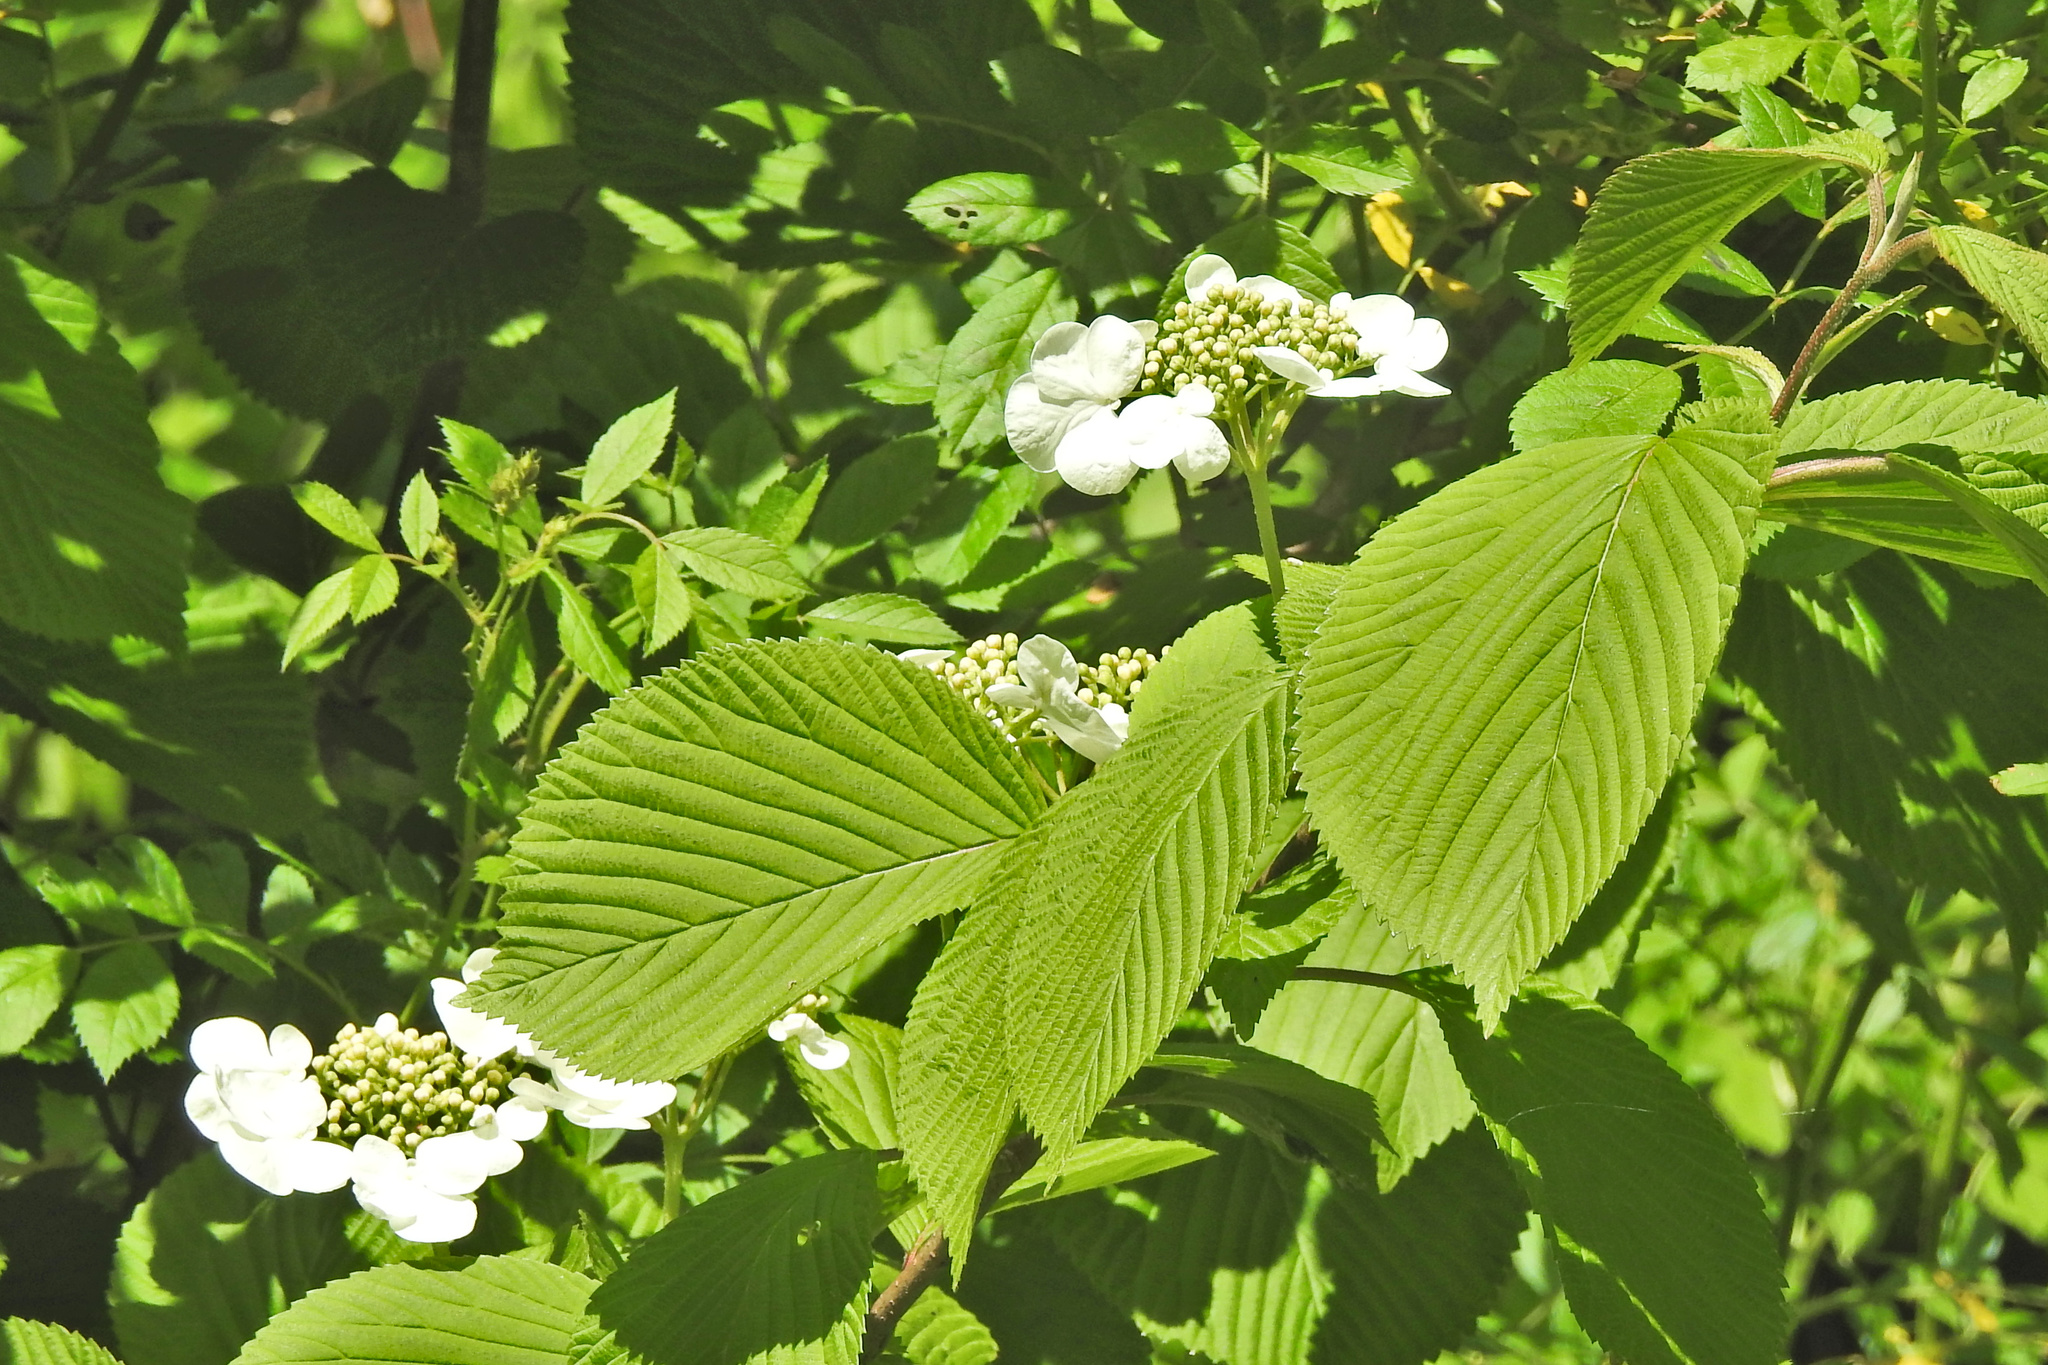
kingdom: Plantae
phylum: Tracheophyta
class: Magnoliopsida
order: Dipsacales
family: Viburnaceae
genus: Viburnum
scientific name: Viburnum plicatum
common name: Japanese snowball
